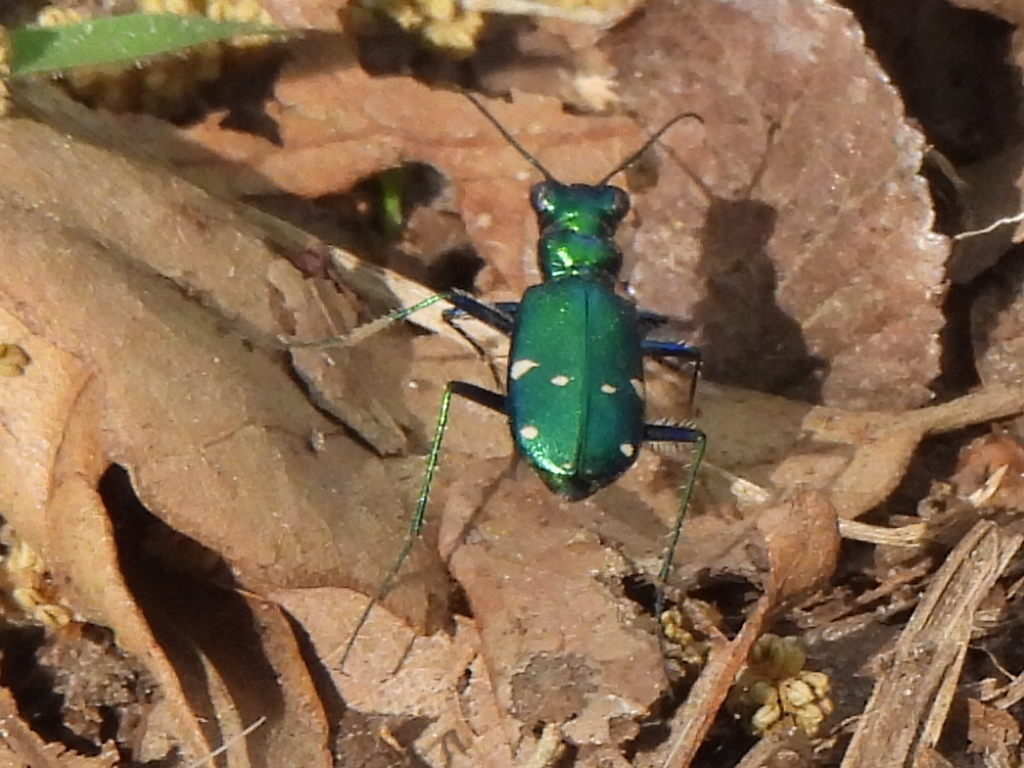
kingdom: Animalia
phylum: Arthropoda
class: Insecta
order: Coleoptera
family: Carabidae
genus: Cicindela
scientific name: Cicindela sexguttata
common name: Six-spotted tiger beetle
